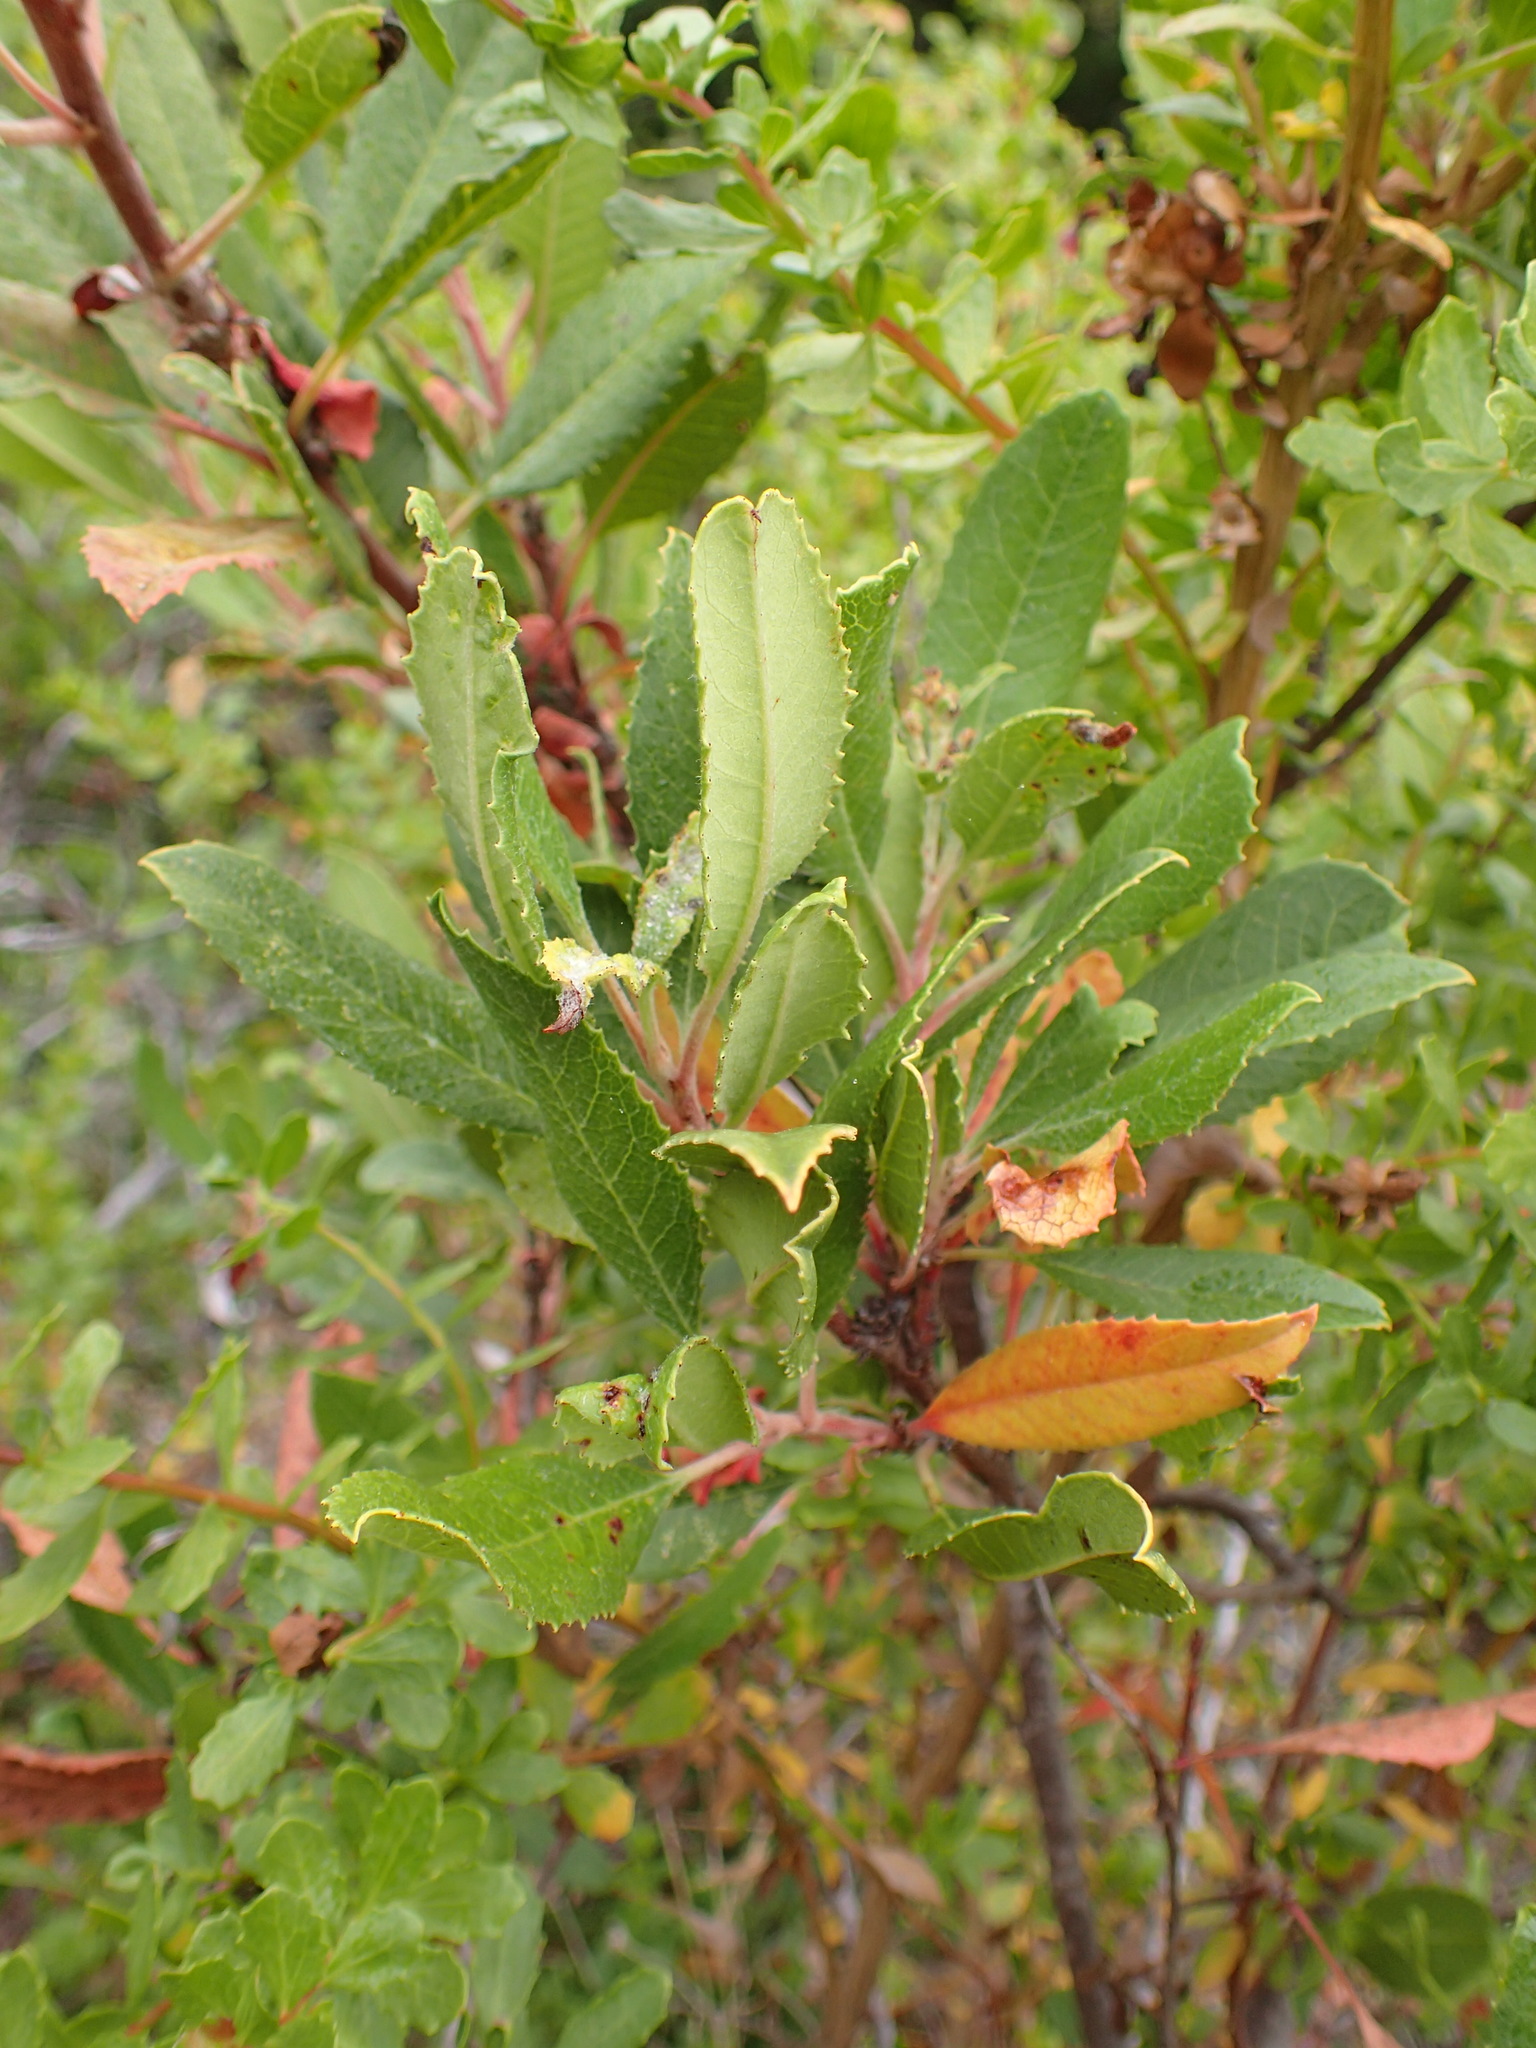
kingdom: Plantae
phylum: Tracheophyta
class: Magnoliopsida
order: Rosales
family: Rosaceae
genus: Heteromeles
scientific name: Heteromeles arbutifolia
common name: California-holly
